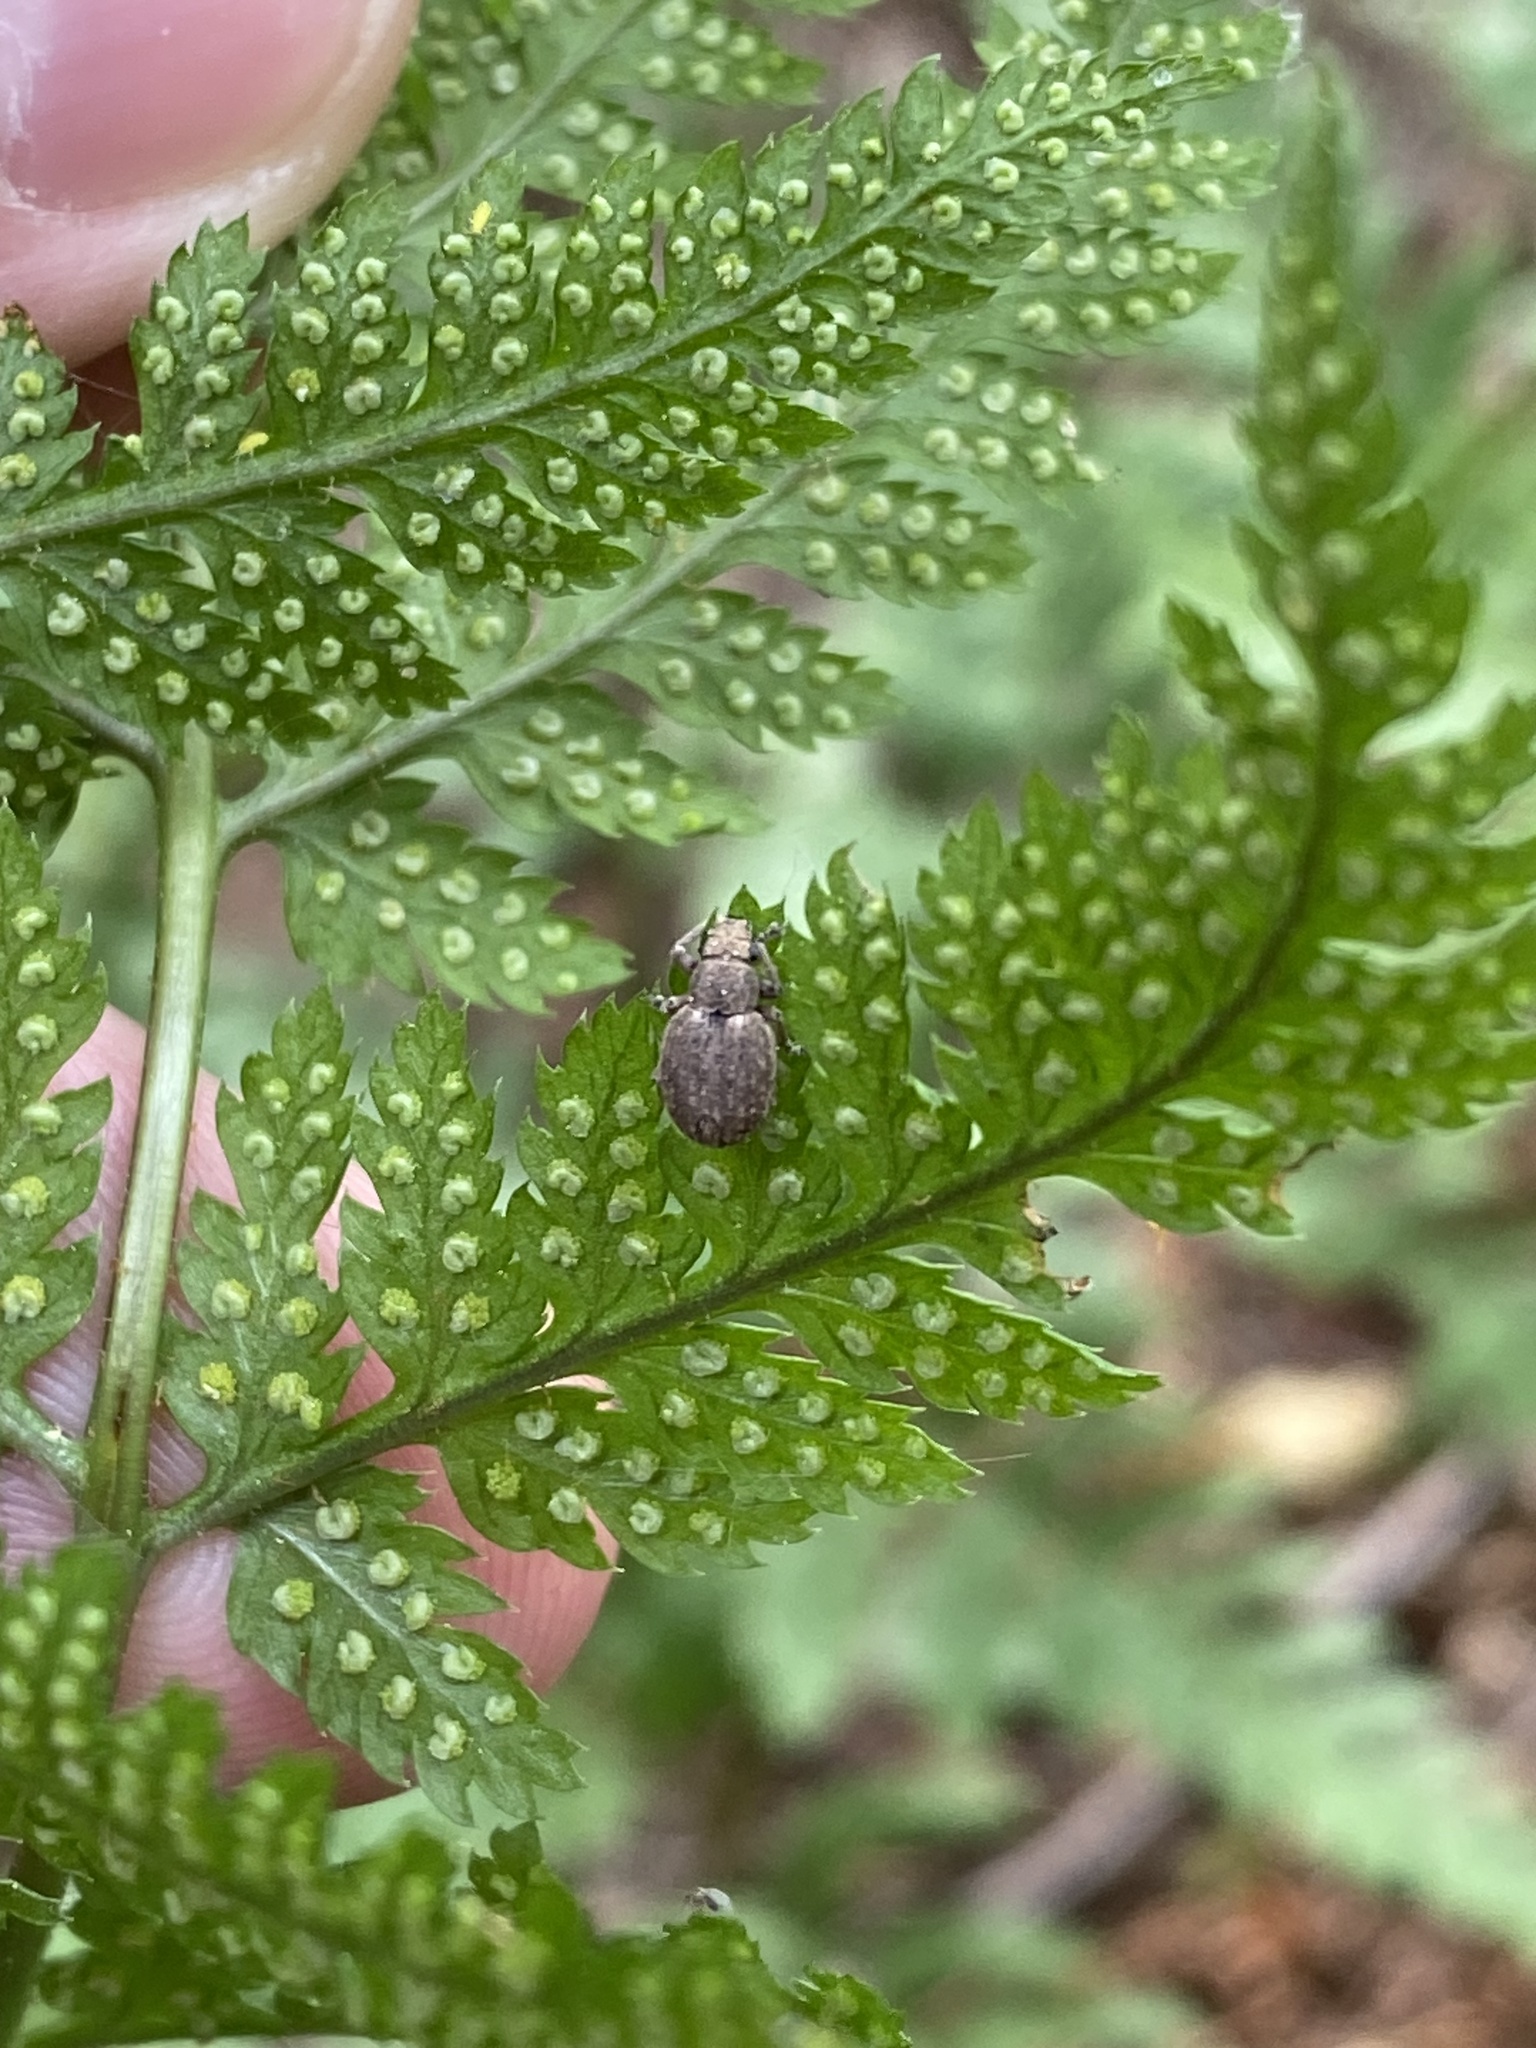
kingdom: Animalia
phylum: Arthropoda
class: Insecta
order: Coleoptera
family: Curculionidae
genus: Strophosoma
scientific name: Strophosoma capitatum
